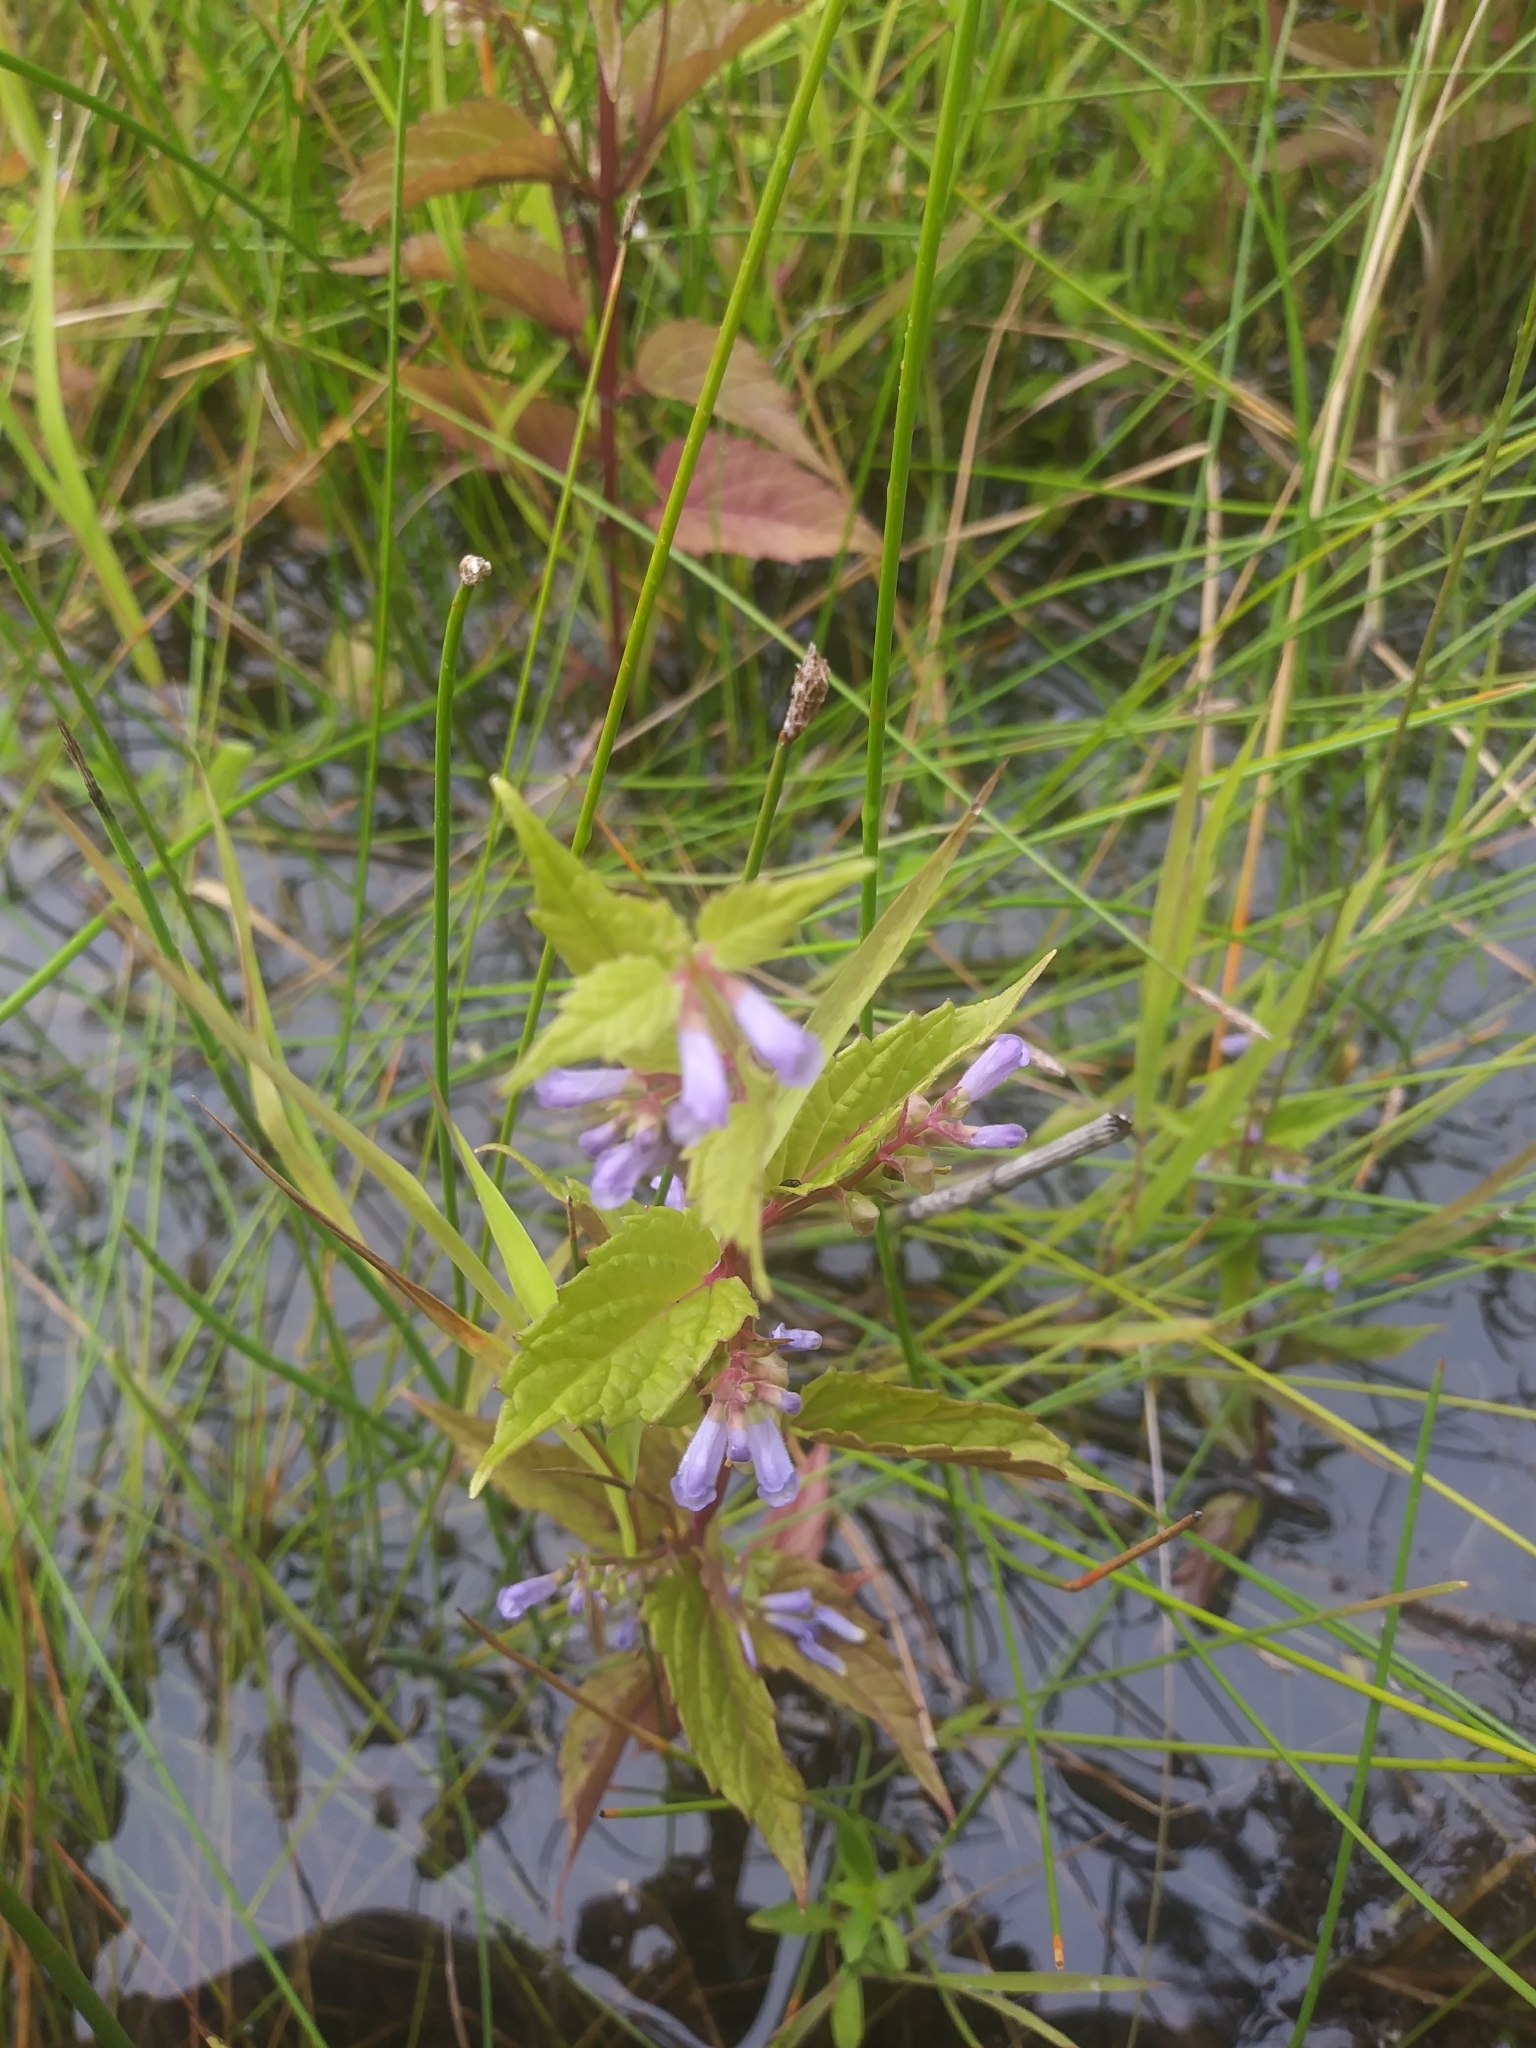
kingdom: Plantae
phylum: Tracheophyta
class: Magnoliopsida
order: Lamiales
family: Lamiaceae
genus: Scutellaria
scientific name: Scutellaria galericulata
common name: Skullcap
